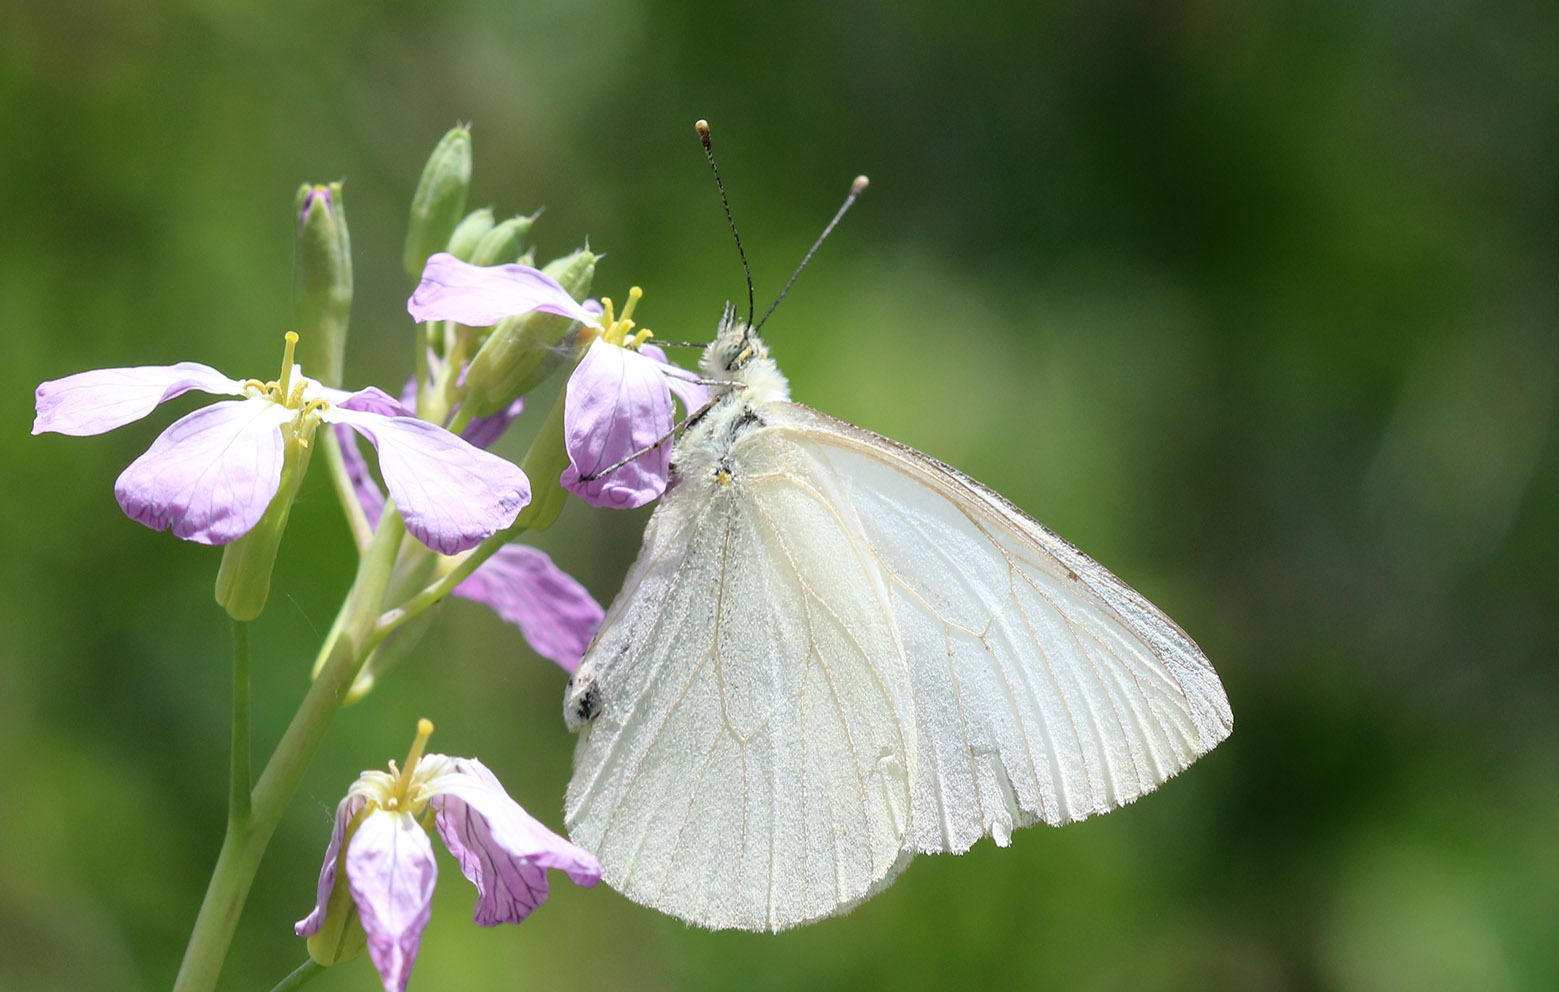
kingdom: Animalia
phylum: Arthropoda
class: Insecta
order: Lepidoptera
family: Pieridae
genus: Theochila
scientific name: Theochila maenacte
